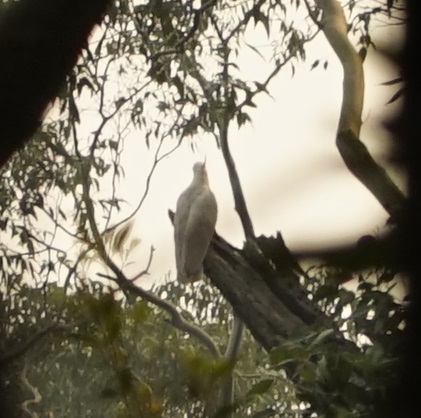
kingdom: Animalia
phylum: Chordata
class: Aves
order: Psittaciformes
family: Psittacidae
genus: Cacatua
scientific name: Cacatua galerita
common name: Sulphur-crested cockatoo
